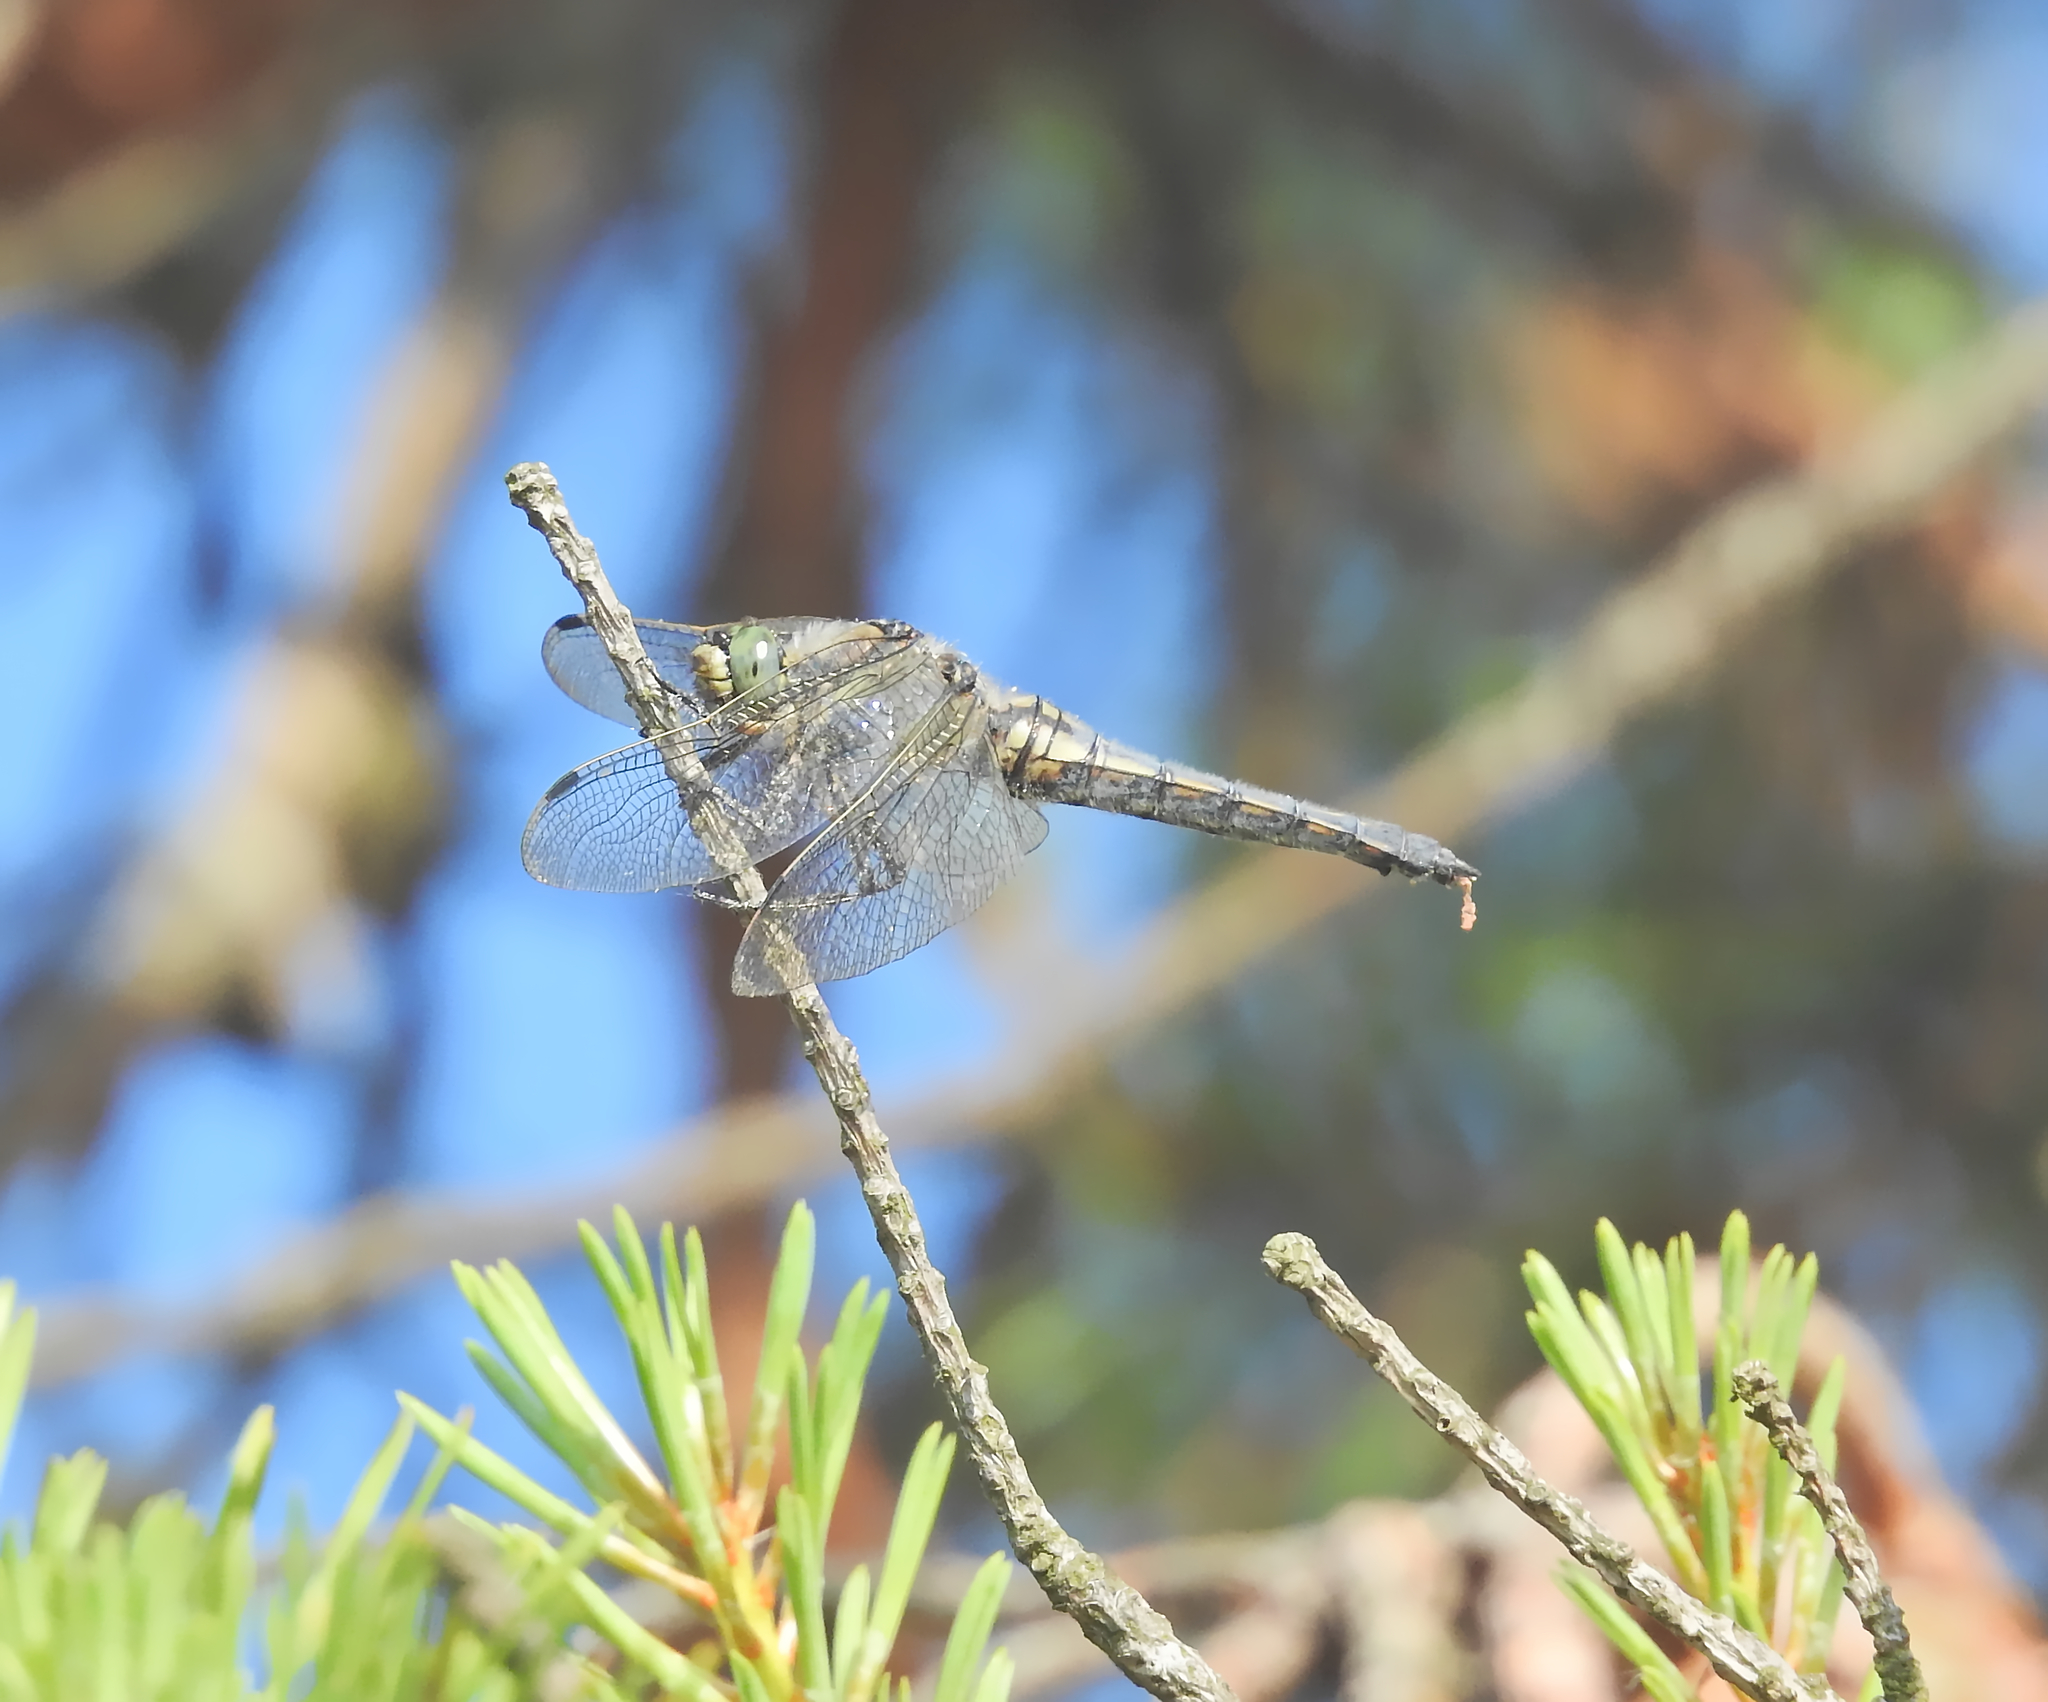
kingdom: Animalia
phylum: Arthropoda
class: Insecta
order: Odonata
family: Libellulidae
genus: Orthetrum
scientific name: Orthetrum cancellatum
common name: Black-tailed skimmer
